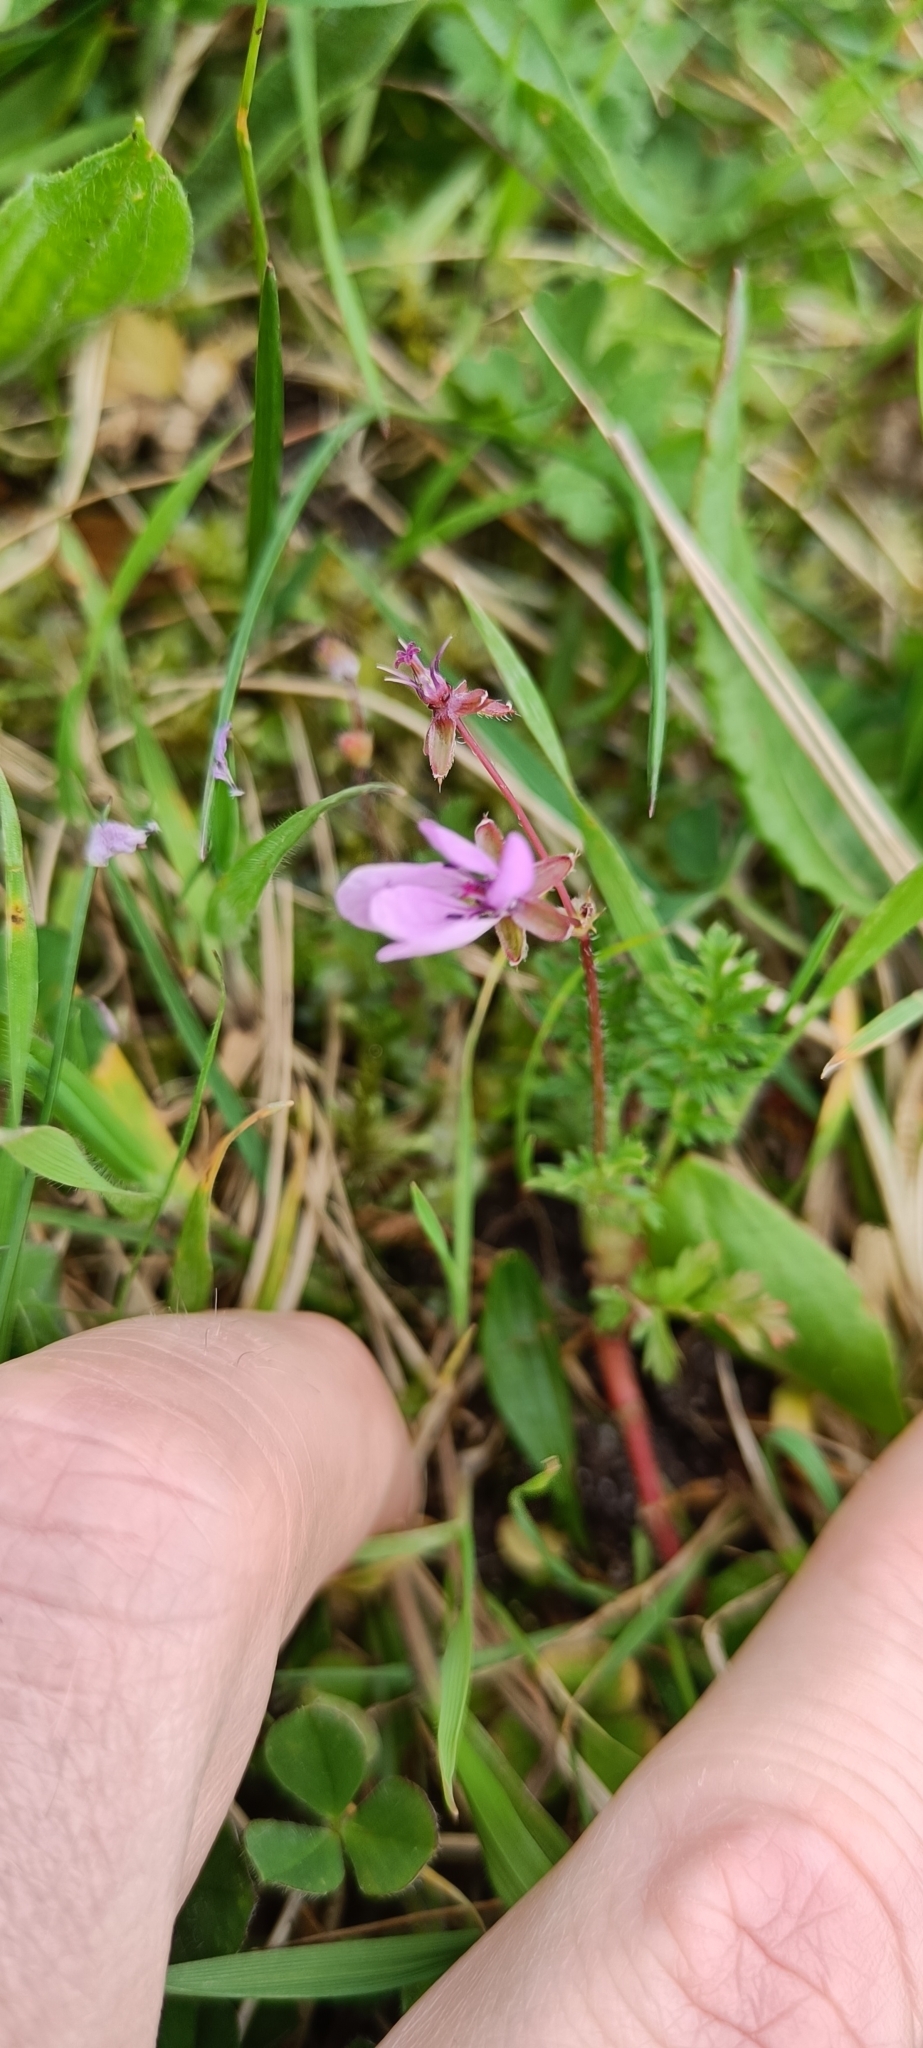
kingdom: Plantae
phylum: Tracheophyta
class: Magnoliopsida
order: Geraniales
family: Geraniaceae
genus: Erodium
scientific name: Erodium cicutarium
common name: Common stork's-bill
